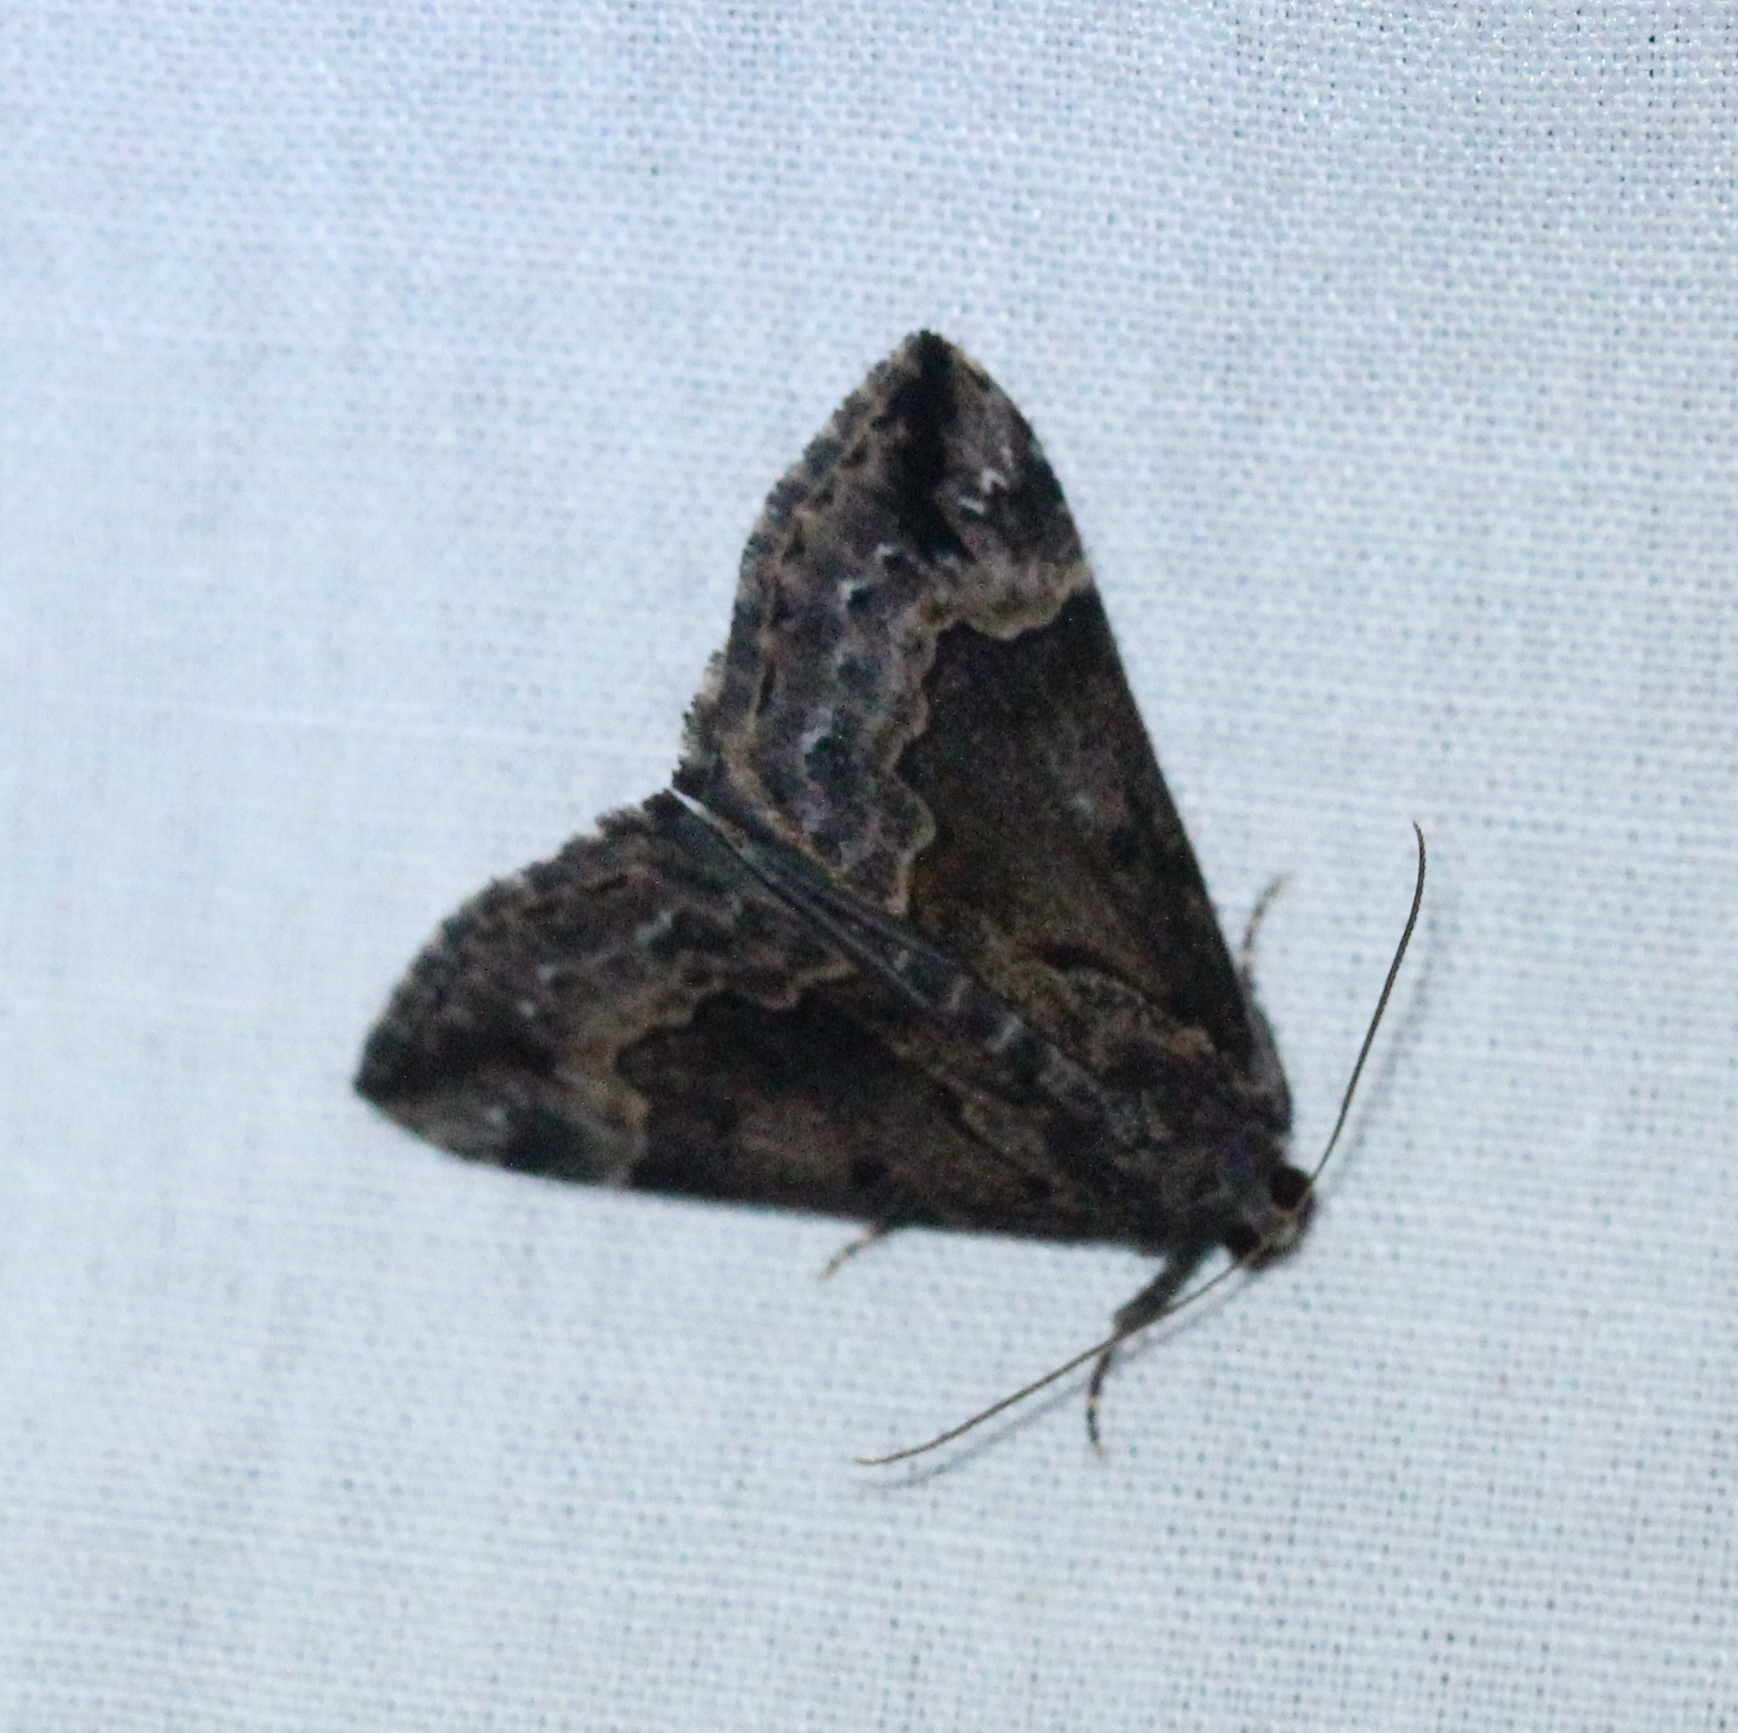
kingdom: Animalia
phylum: Arthropoda
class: Insecta
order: Lepidoptera
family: Erebidae
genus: Hypena
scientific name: Hypena palparia
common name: Mottled bomolocha moth
